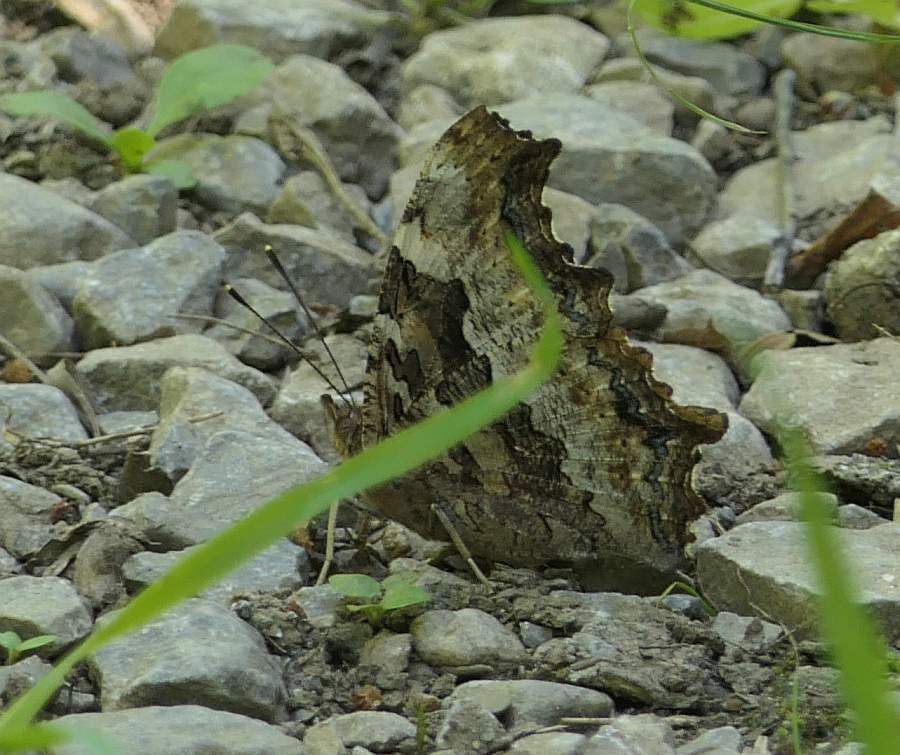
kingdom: Animalia
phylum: Arthropoda
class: Insecta
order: Lepidoptera
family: Nymphalidae
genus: Polygonia
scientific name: Polygonia vaualbum
